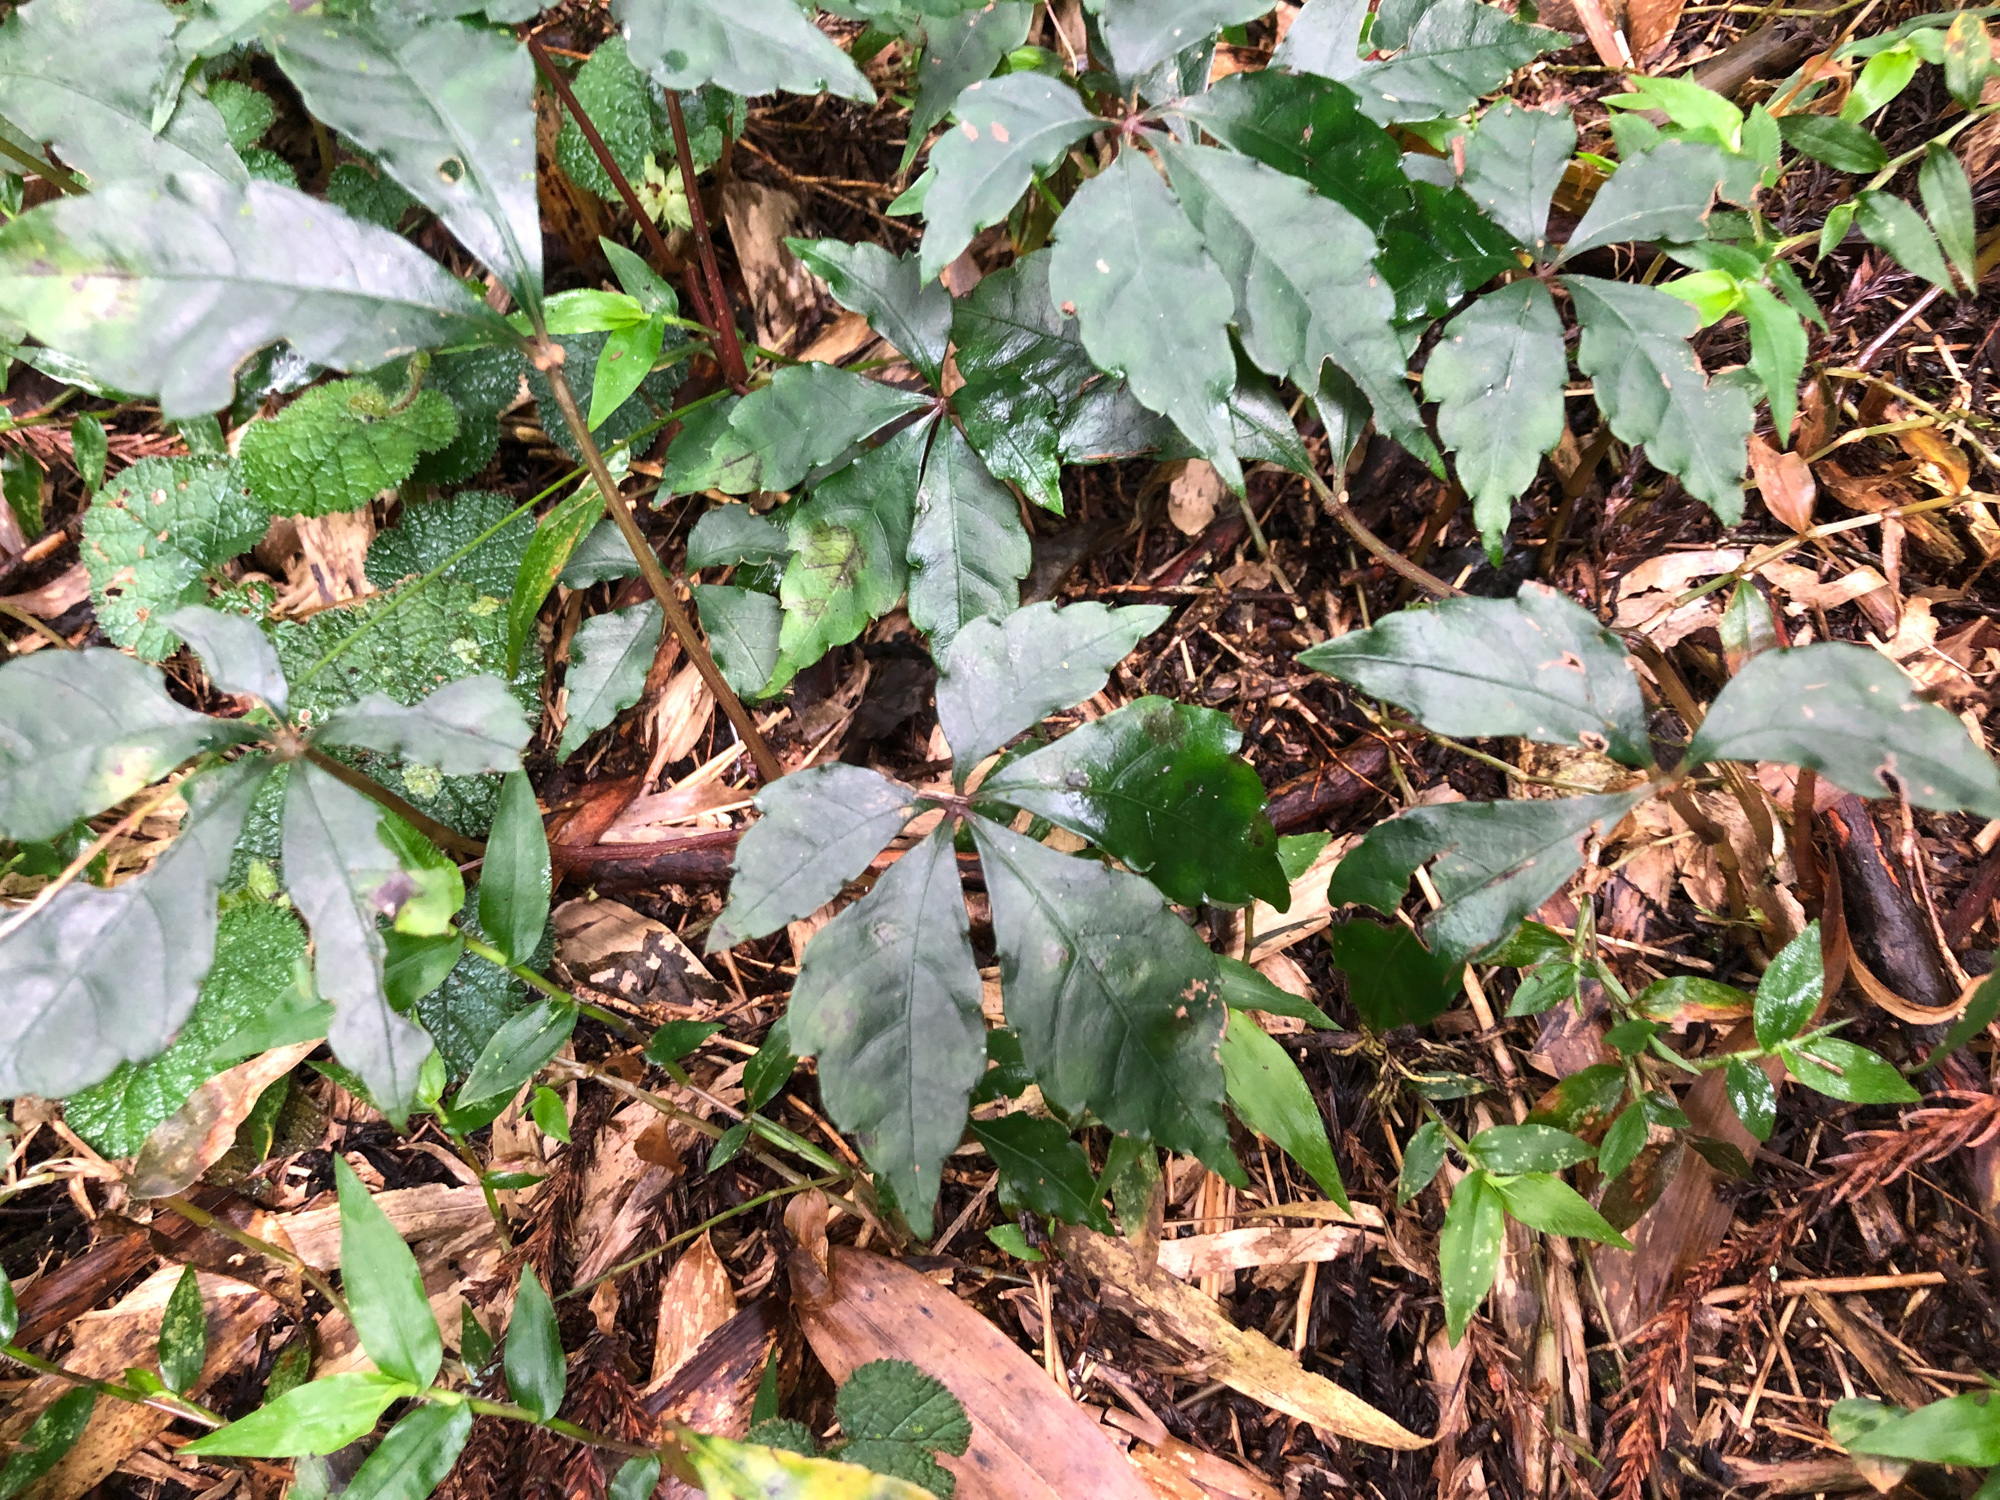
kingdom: Plantae
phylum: Tracheophyta
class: Magnoliopsida
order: Vitales
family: Vitaceae
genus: Tetrastigma
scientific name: Tetrastigma obtectum
